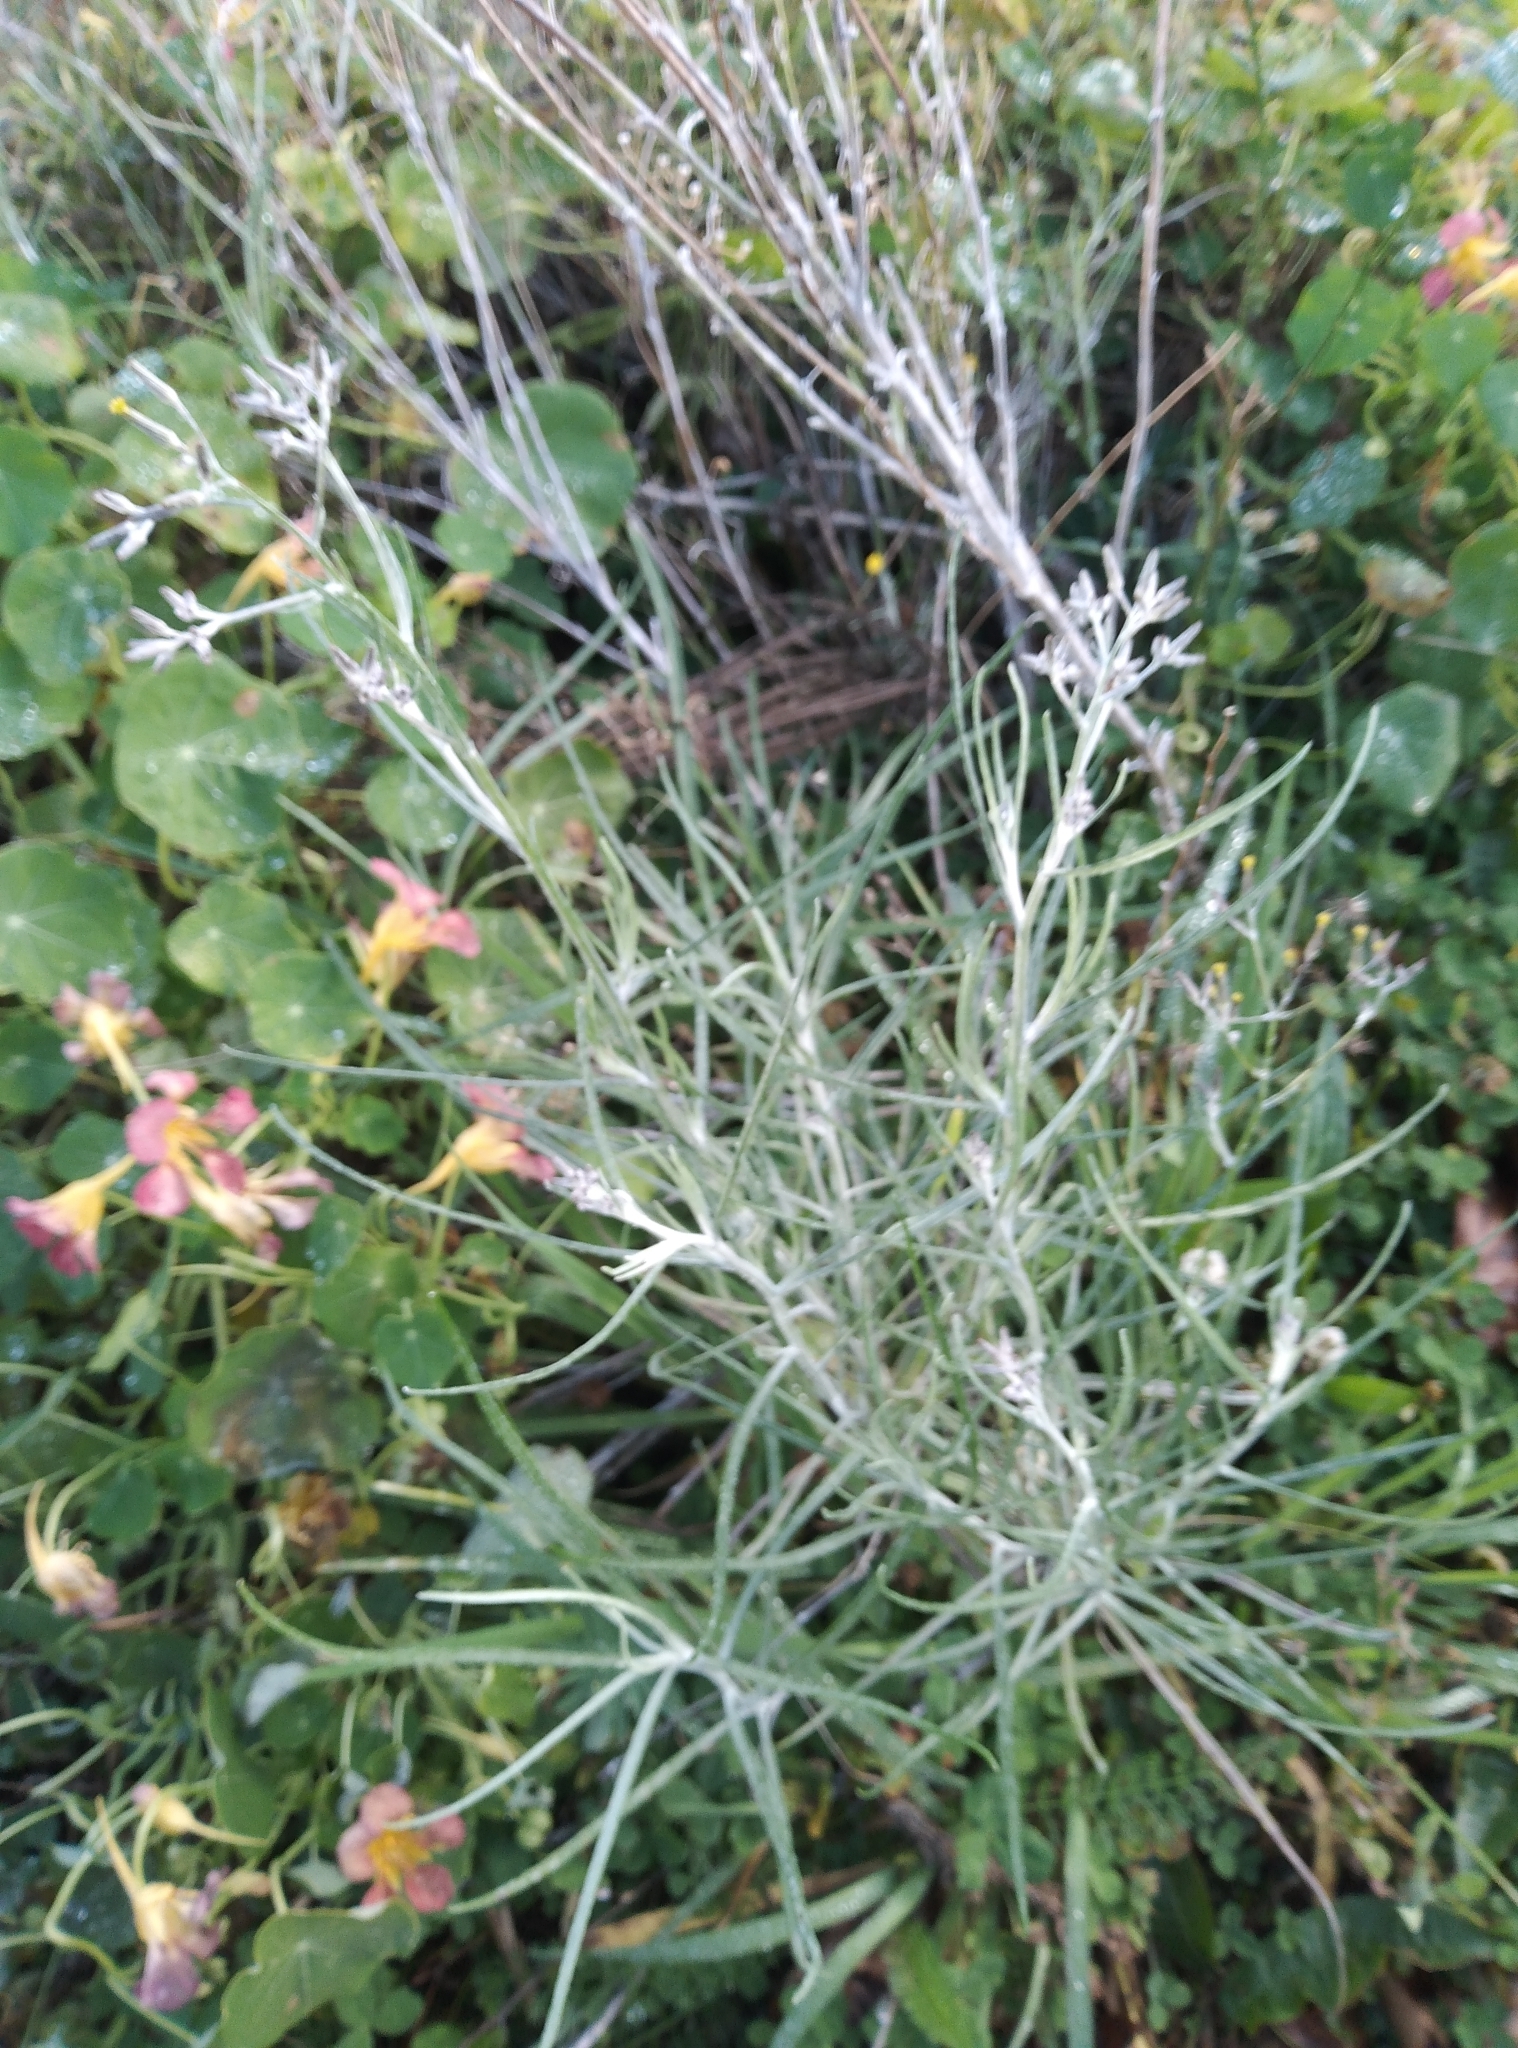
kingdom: Plantae
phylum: Tracheophyta
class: Magnoliopsida
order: Asterales
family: Asteraceae
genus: Senecio
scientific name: Senecio quadridentatus
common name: Cotton fireweed
